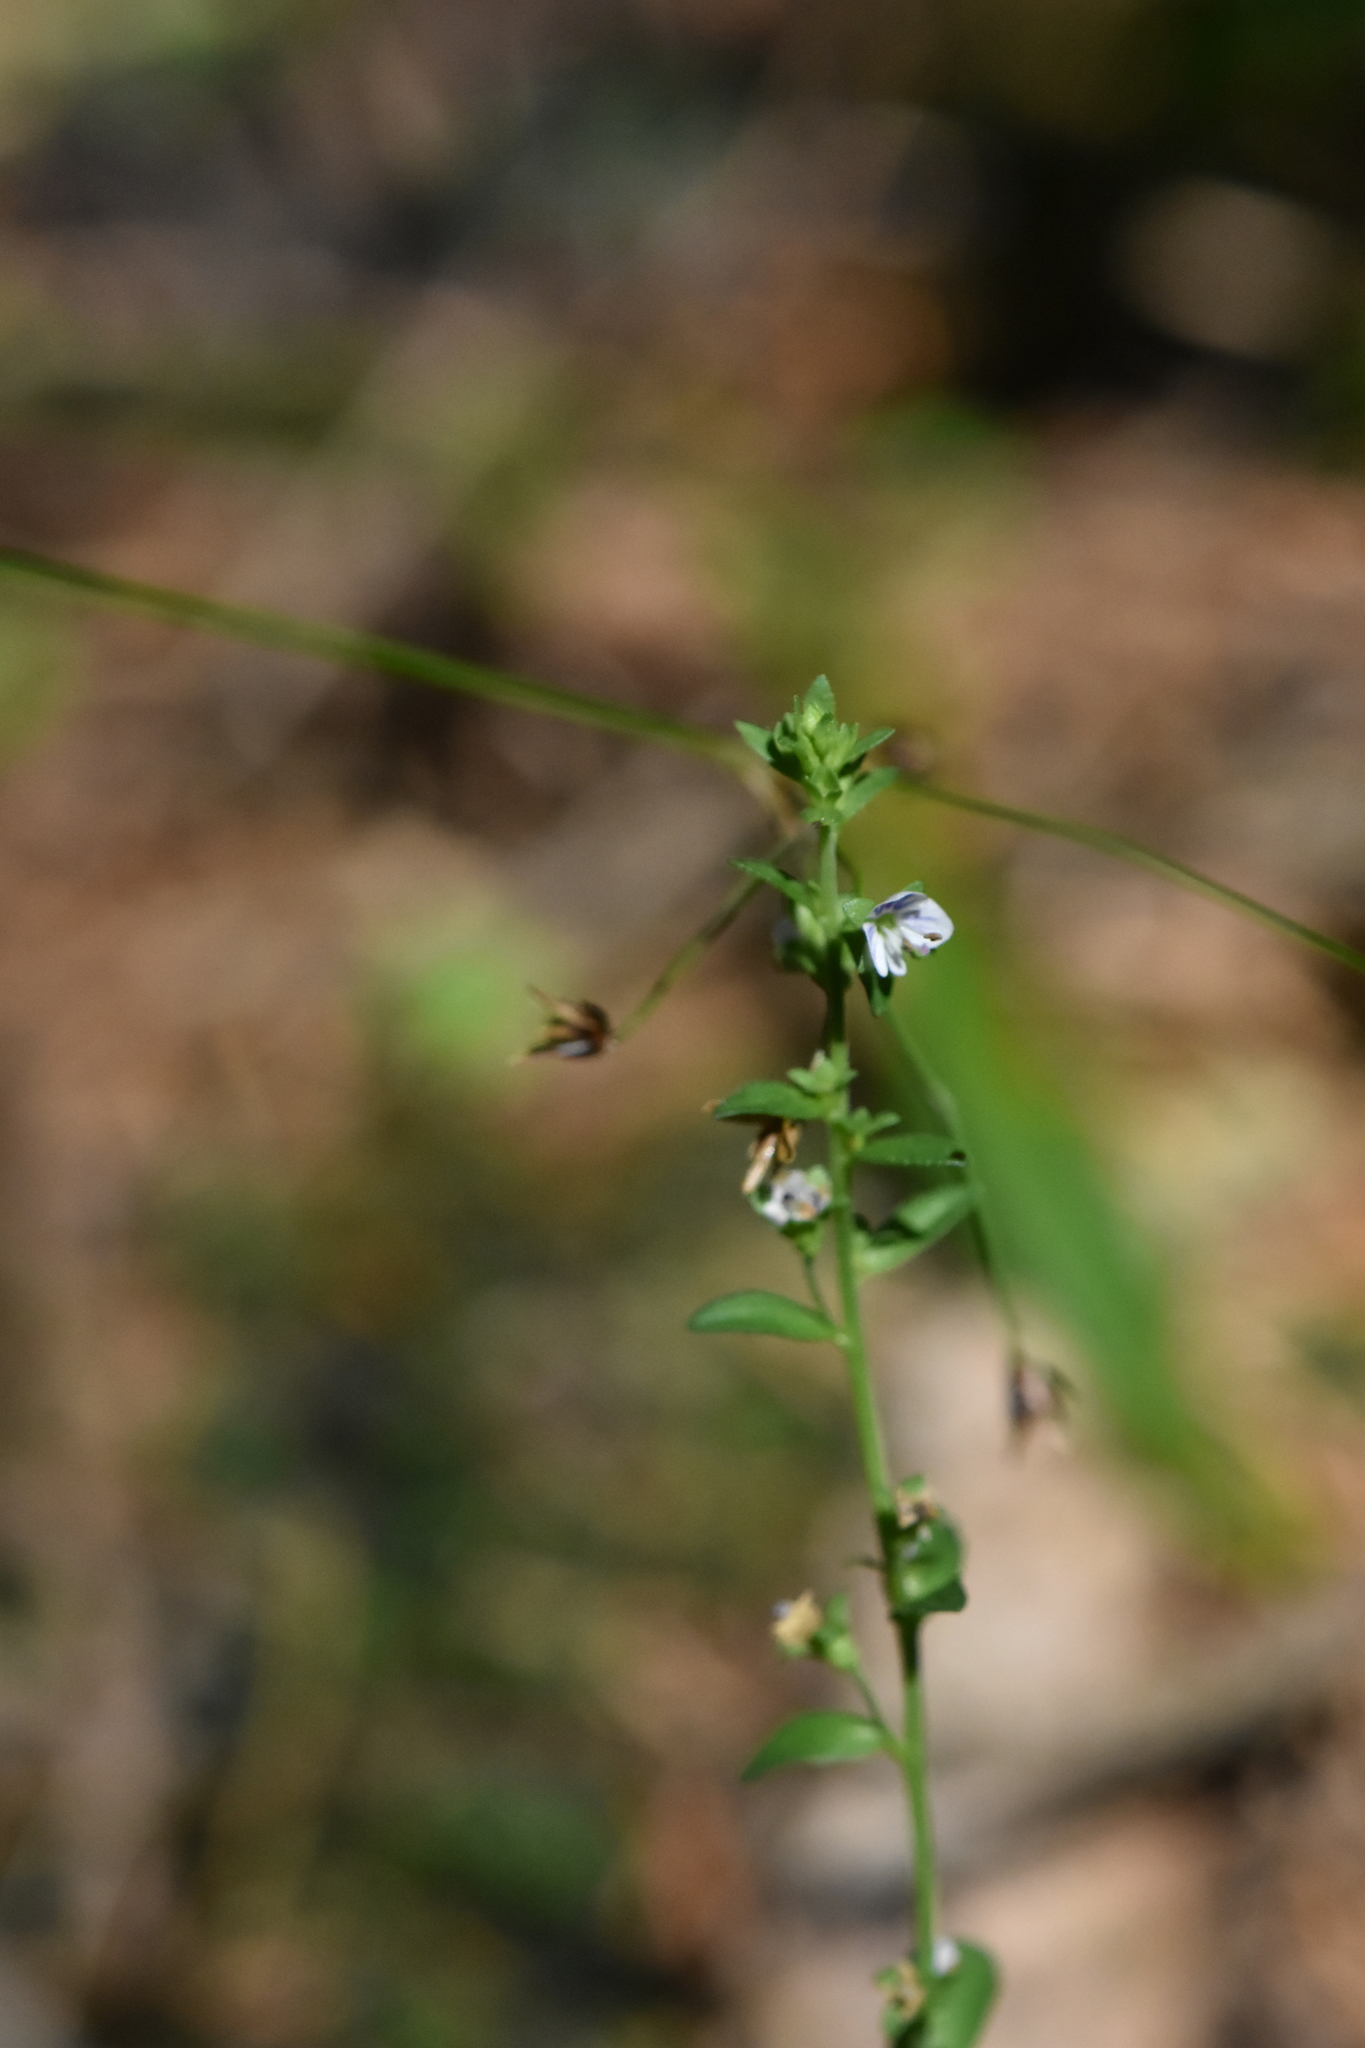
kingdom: Plantae
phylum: Tracheophyta
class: Magnoliopsida
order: Lamiales
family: Plantaginaceae
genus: Veronica
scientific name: Veronica serpyllifolia
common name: Thyme-leaved speedwell
